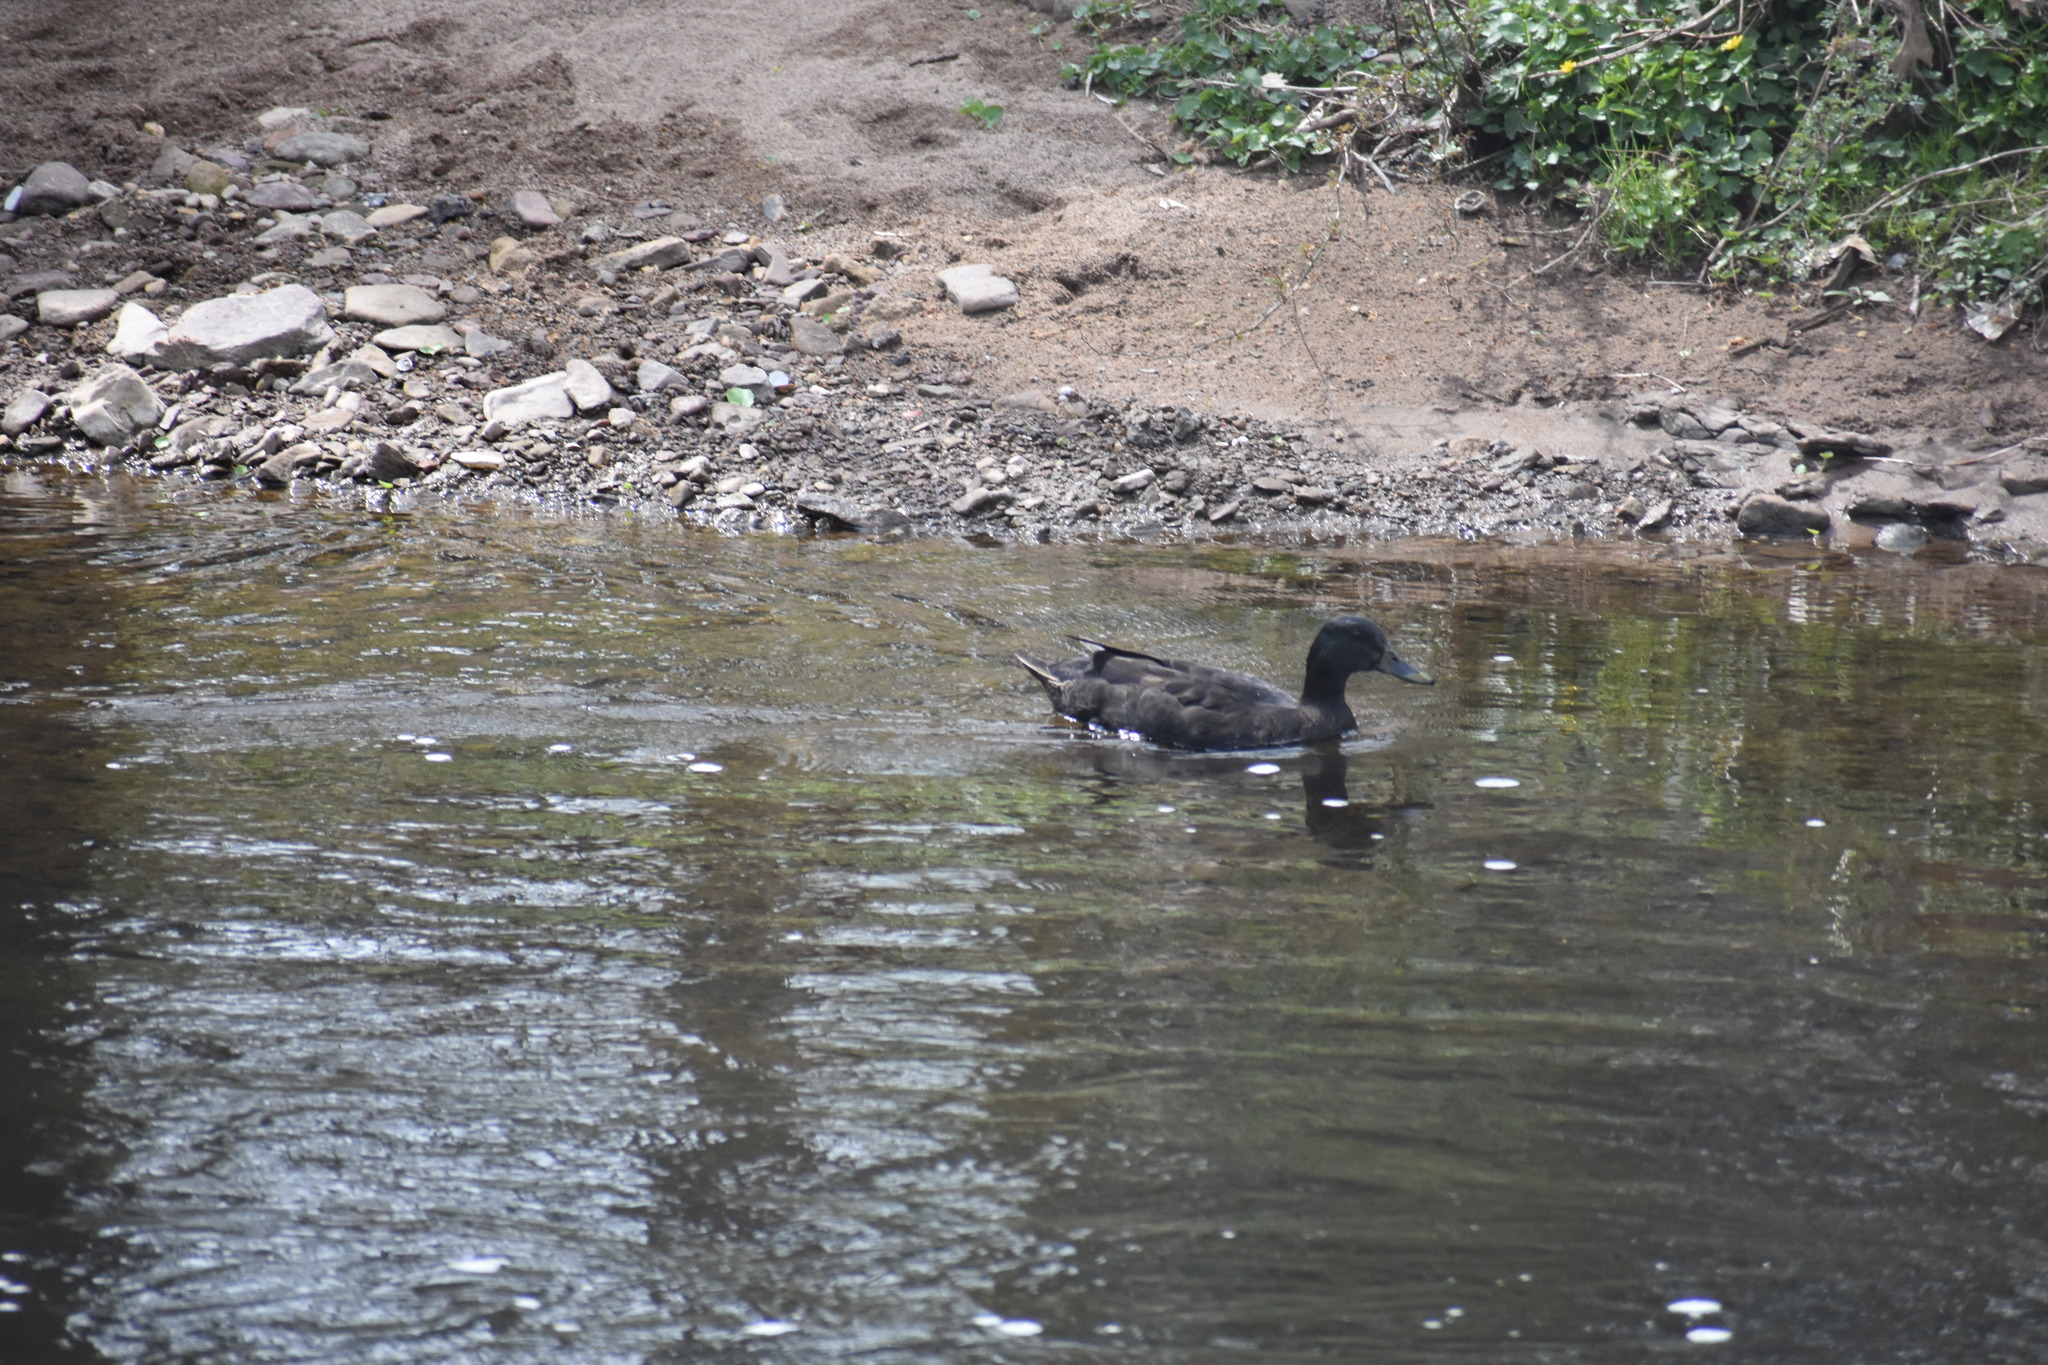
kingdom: Animalia
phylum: Chordata
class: Aves
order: Anseriformes
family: Anatidae
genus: Anas
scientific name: Anas platyrhynchos
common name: Mallard
